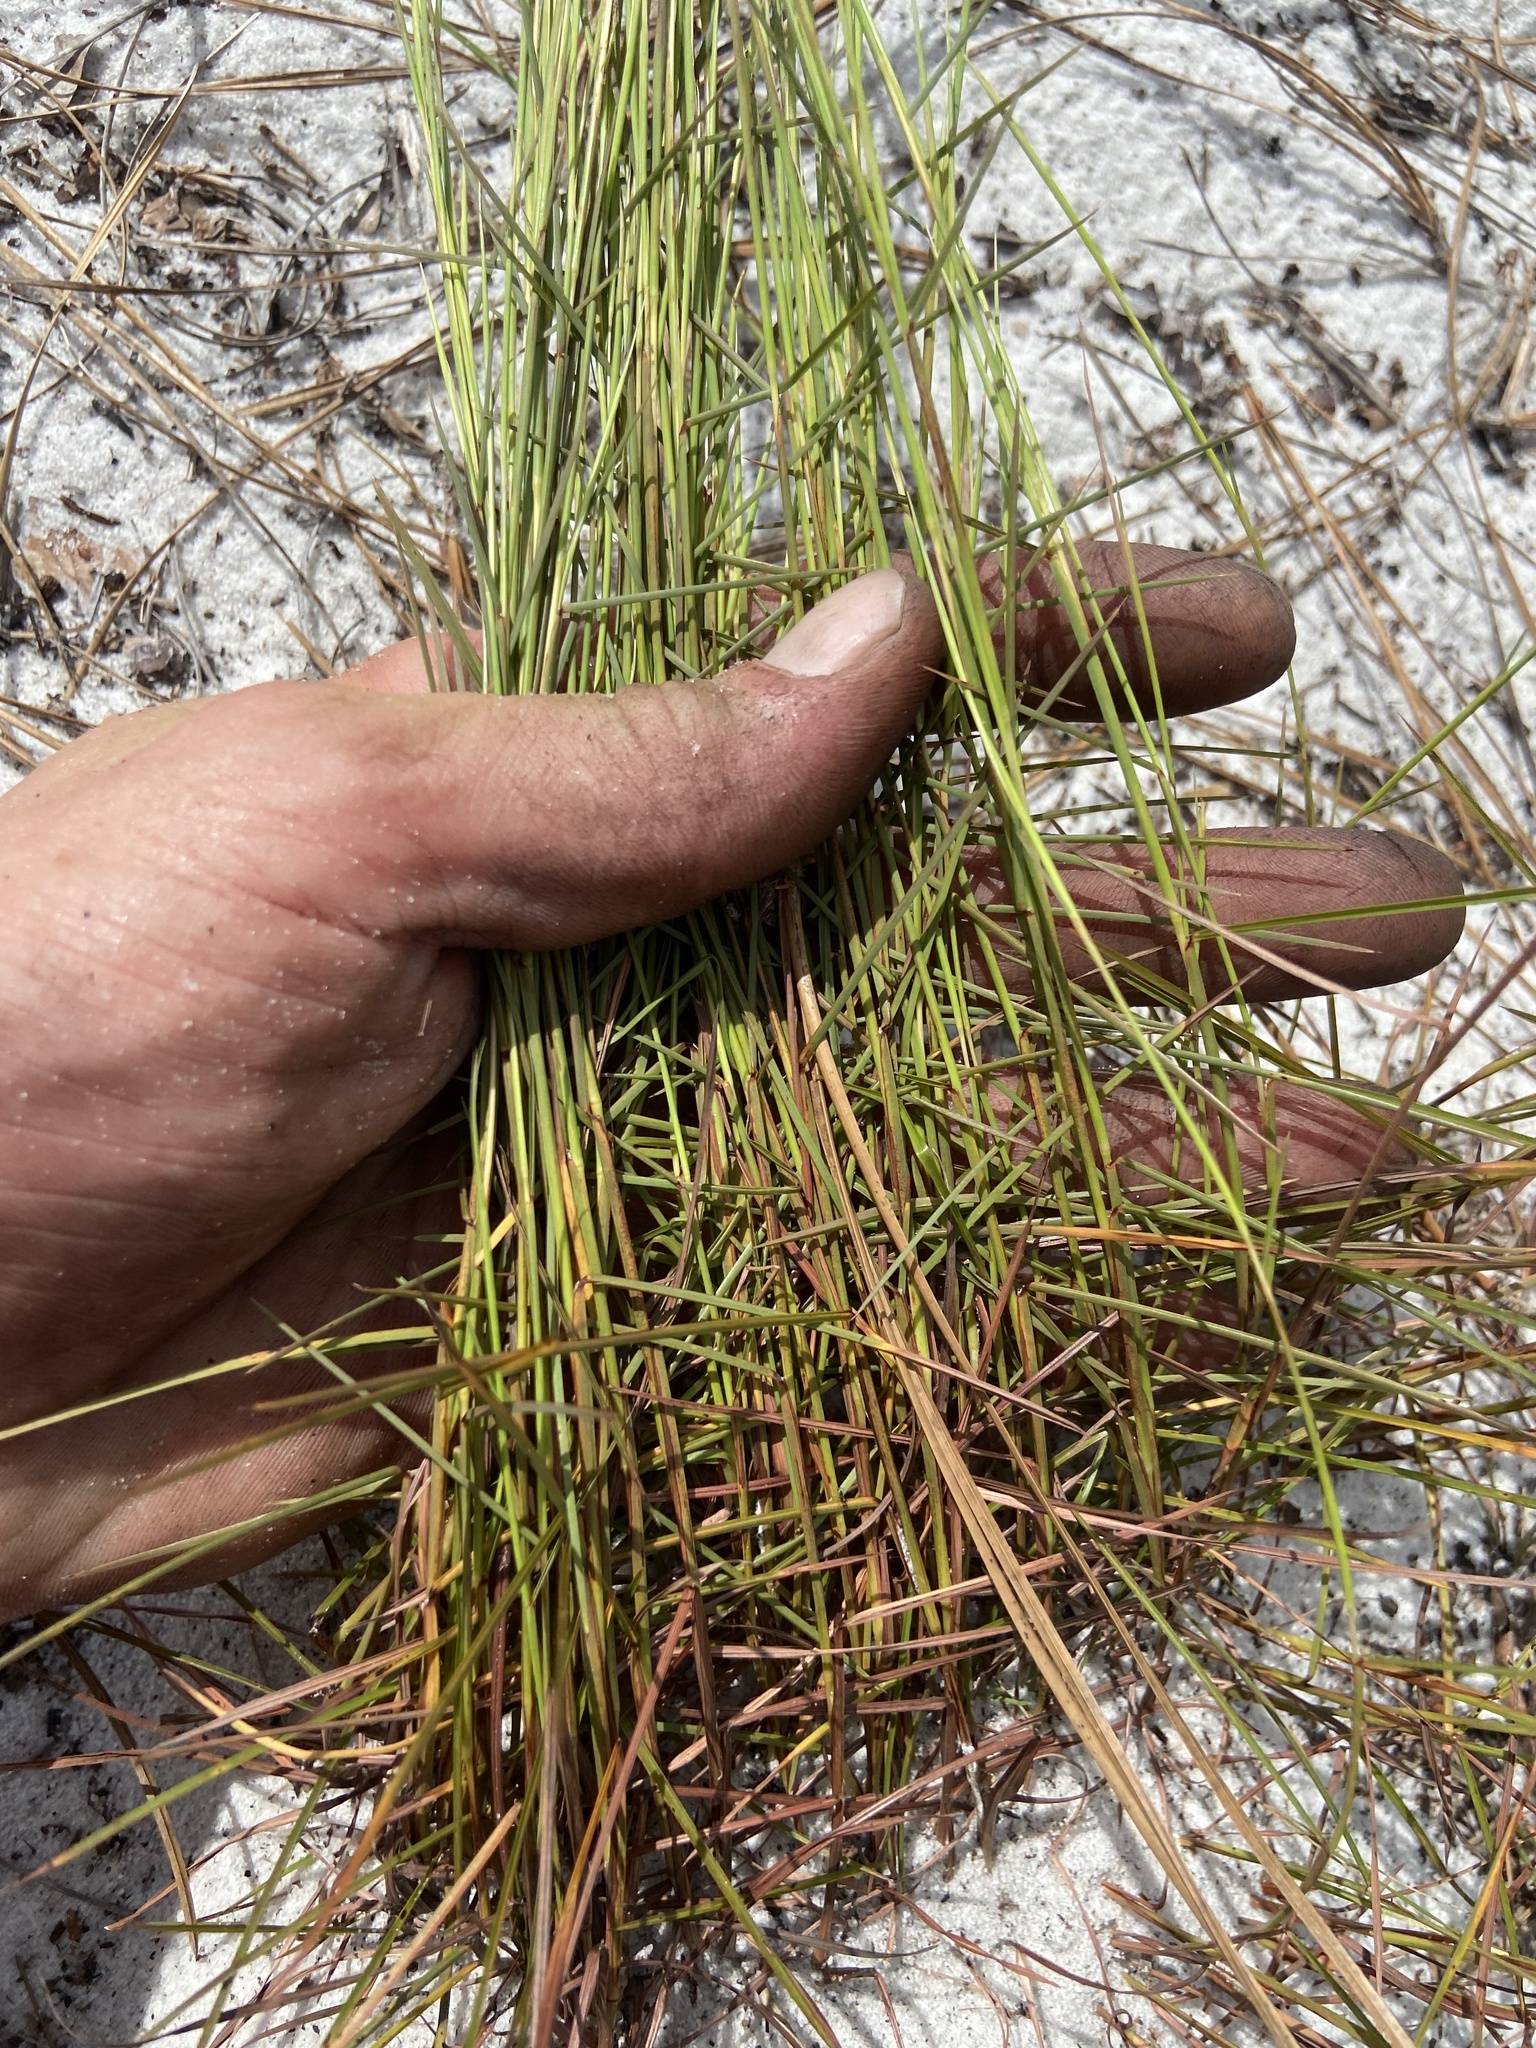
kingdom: Plantae
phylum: Tracheophyta
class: Liliopsida
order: Poales
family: Poaceae
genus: Schizachyrium
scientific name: Schizachyrium niveum
